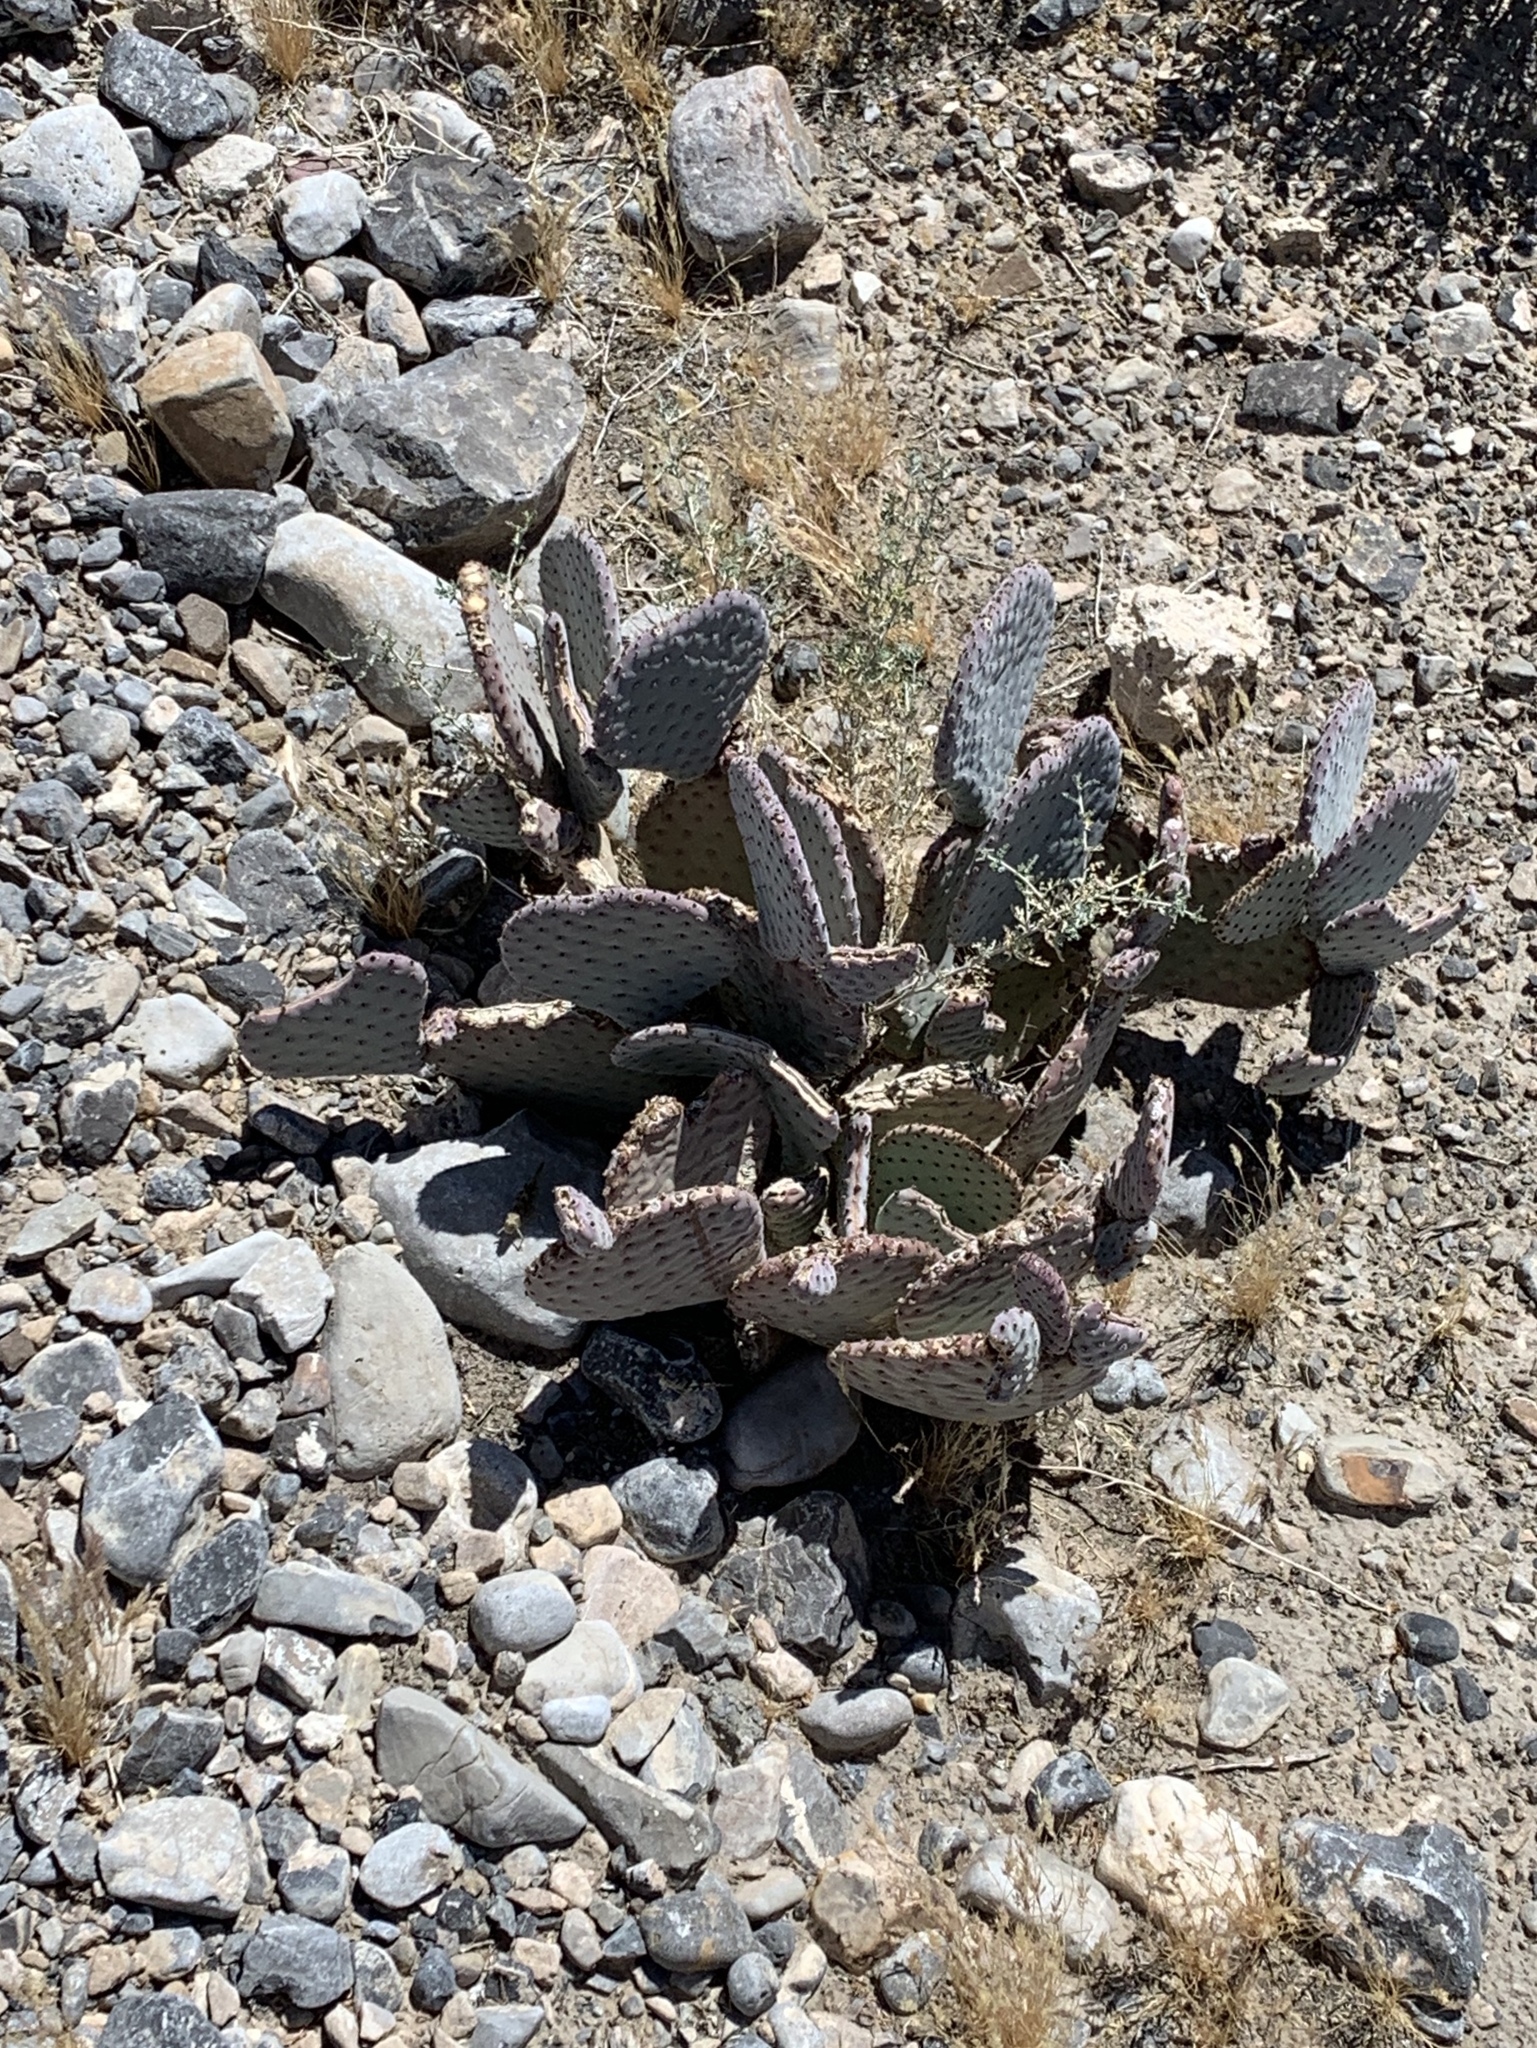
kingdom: Plantae
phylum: Tracheophyta
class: Magnoliopsida
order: Caryophyllales
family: Cactaceae
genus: Opuntia
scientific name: Opuntia basilaris
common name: Beavertail prickly-pear
